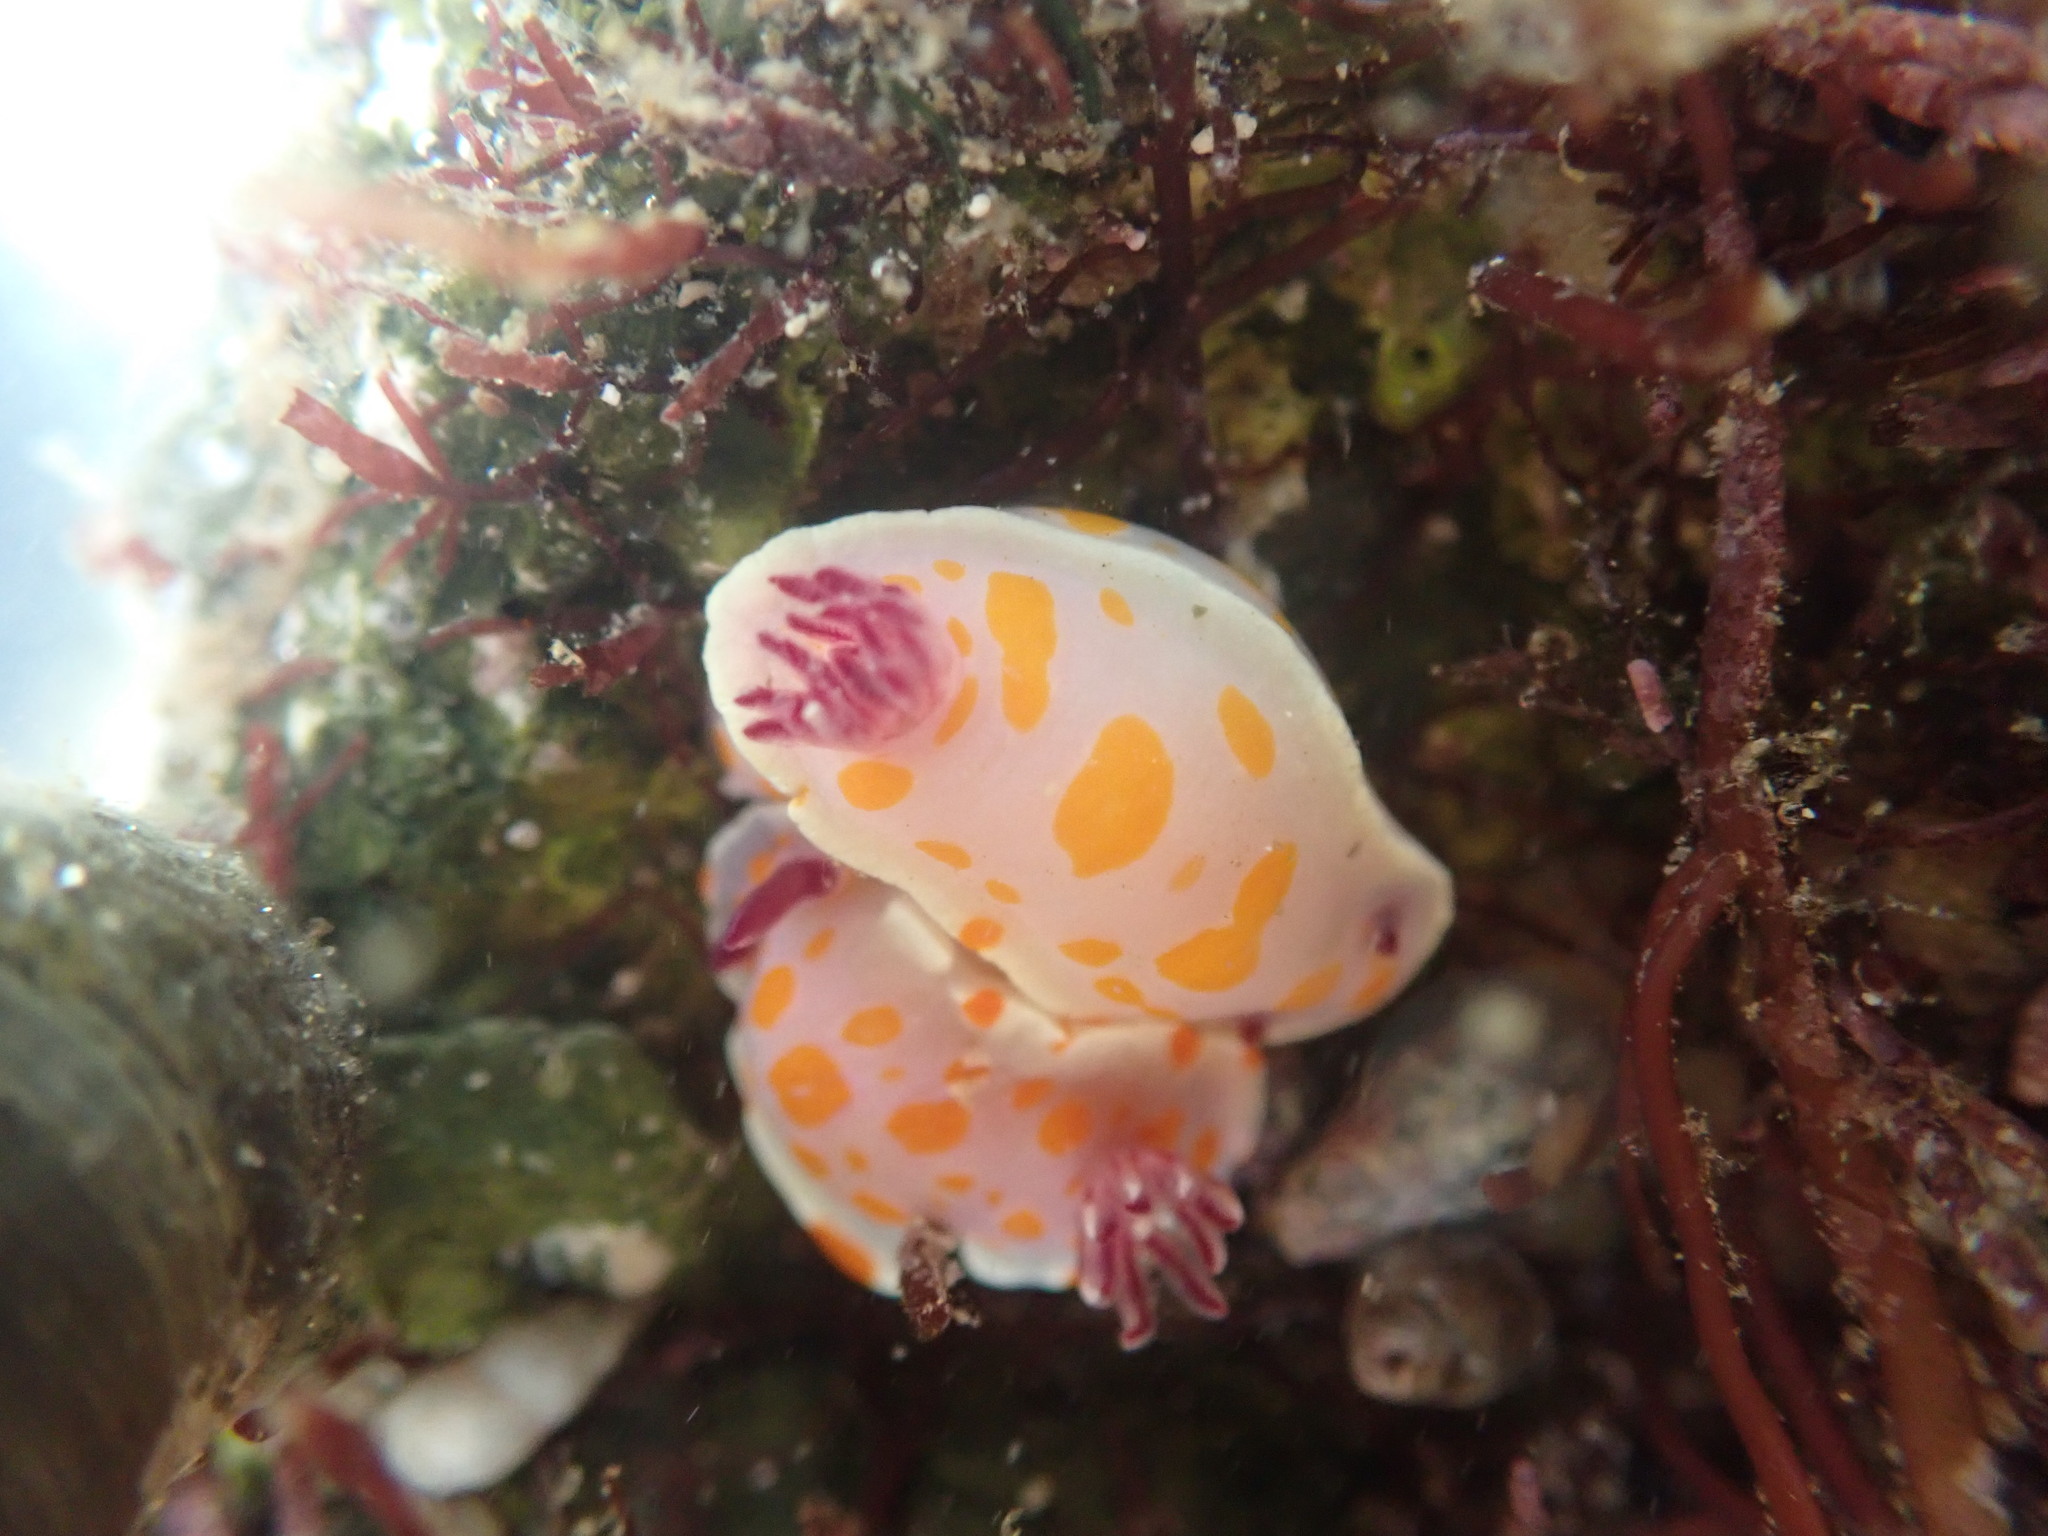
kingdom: Animalia
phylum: Mollusca
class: Gastropoda
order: Nudibranchia
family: Chromodorididae
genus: Ceratosoma
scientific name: Ceratosoma amoenum
